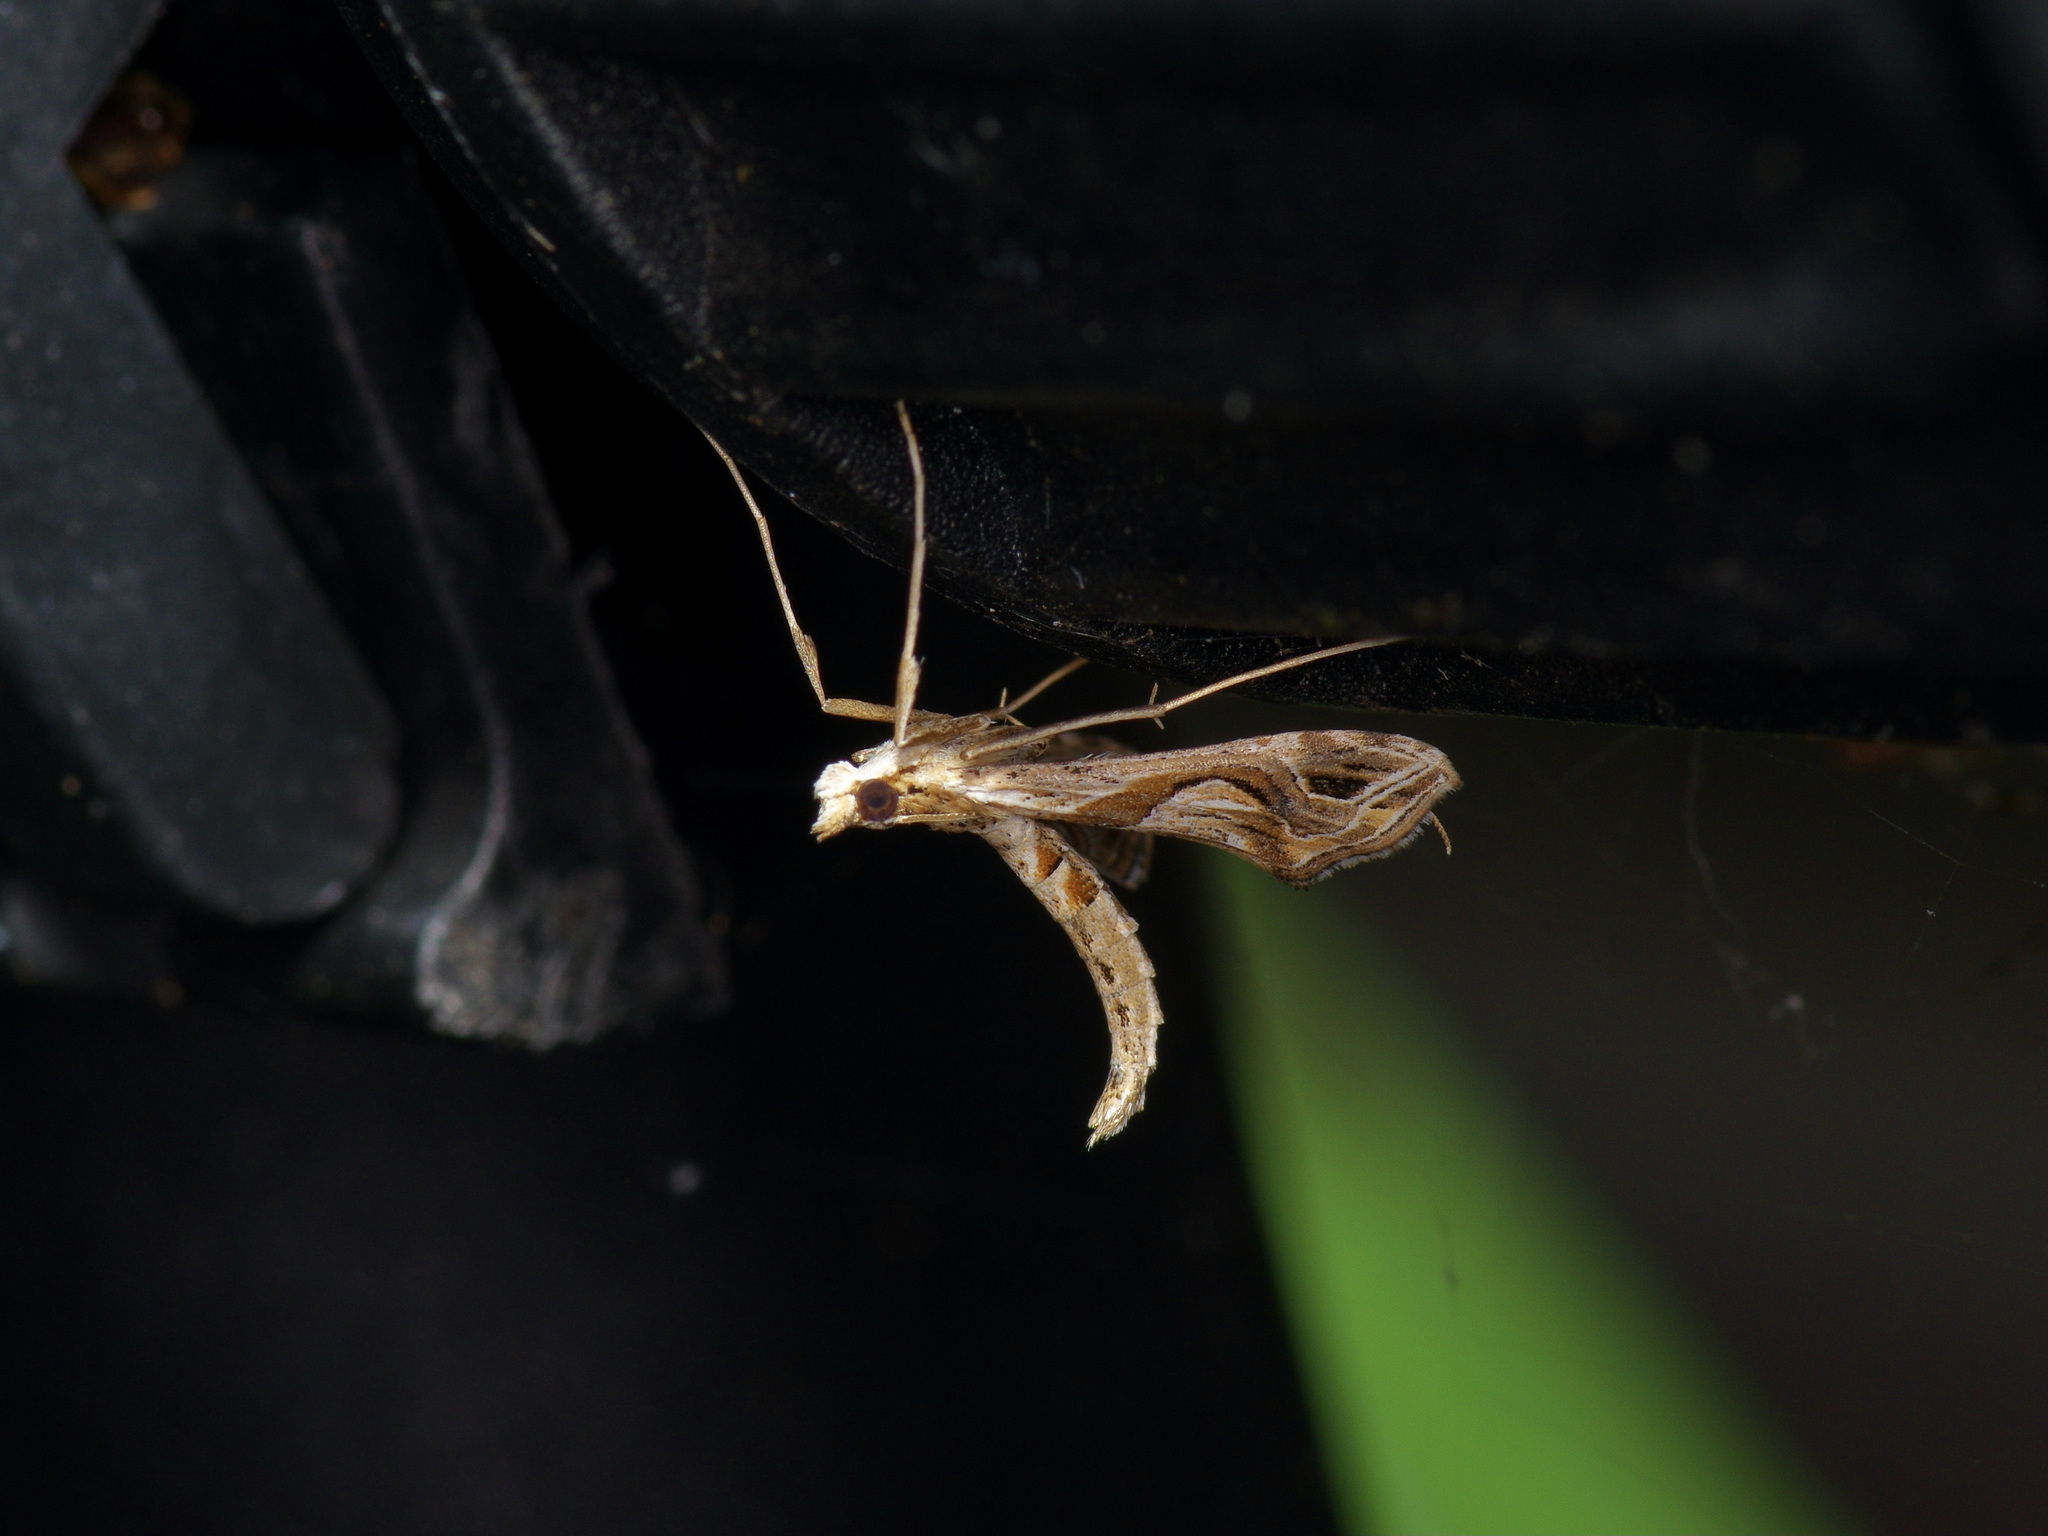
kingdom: Animalia
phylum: Arthropoda
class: Insecta
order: Lepidoptera
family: Crambidae
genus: Lineodes
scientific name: Lineodes integra
